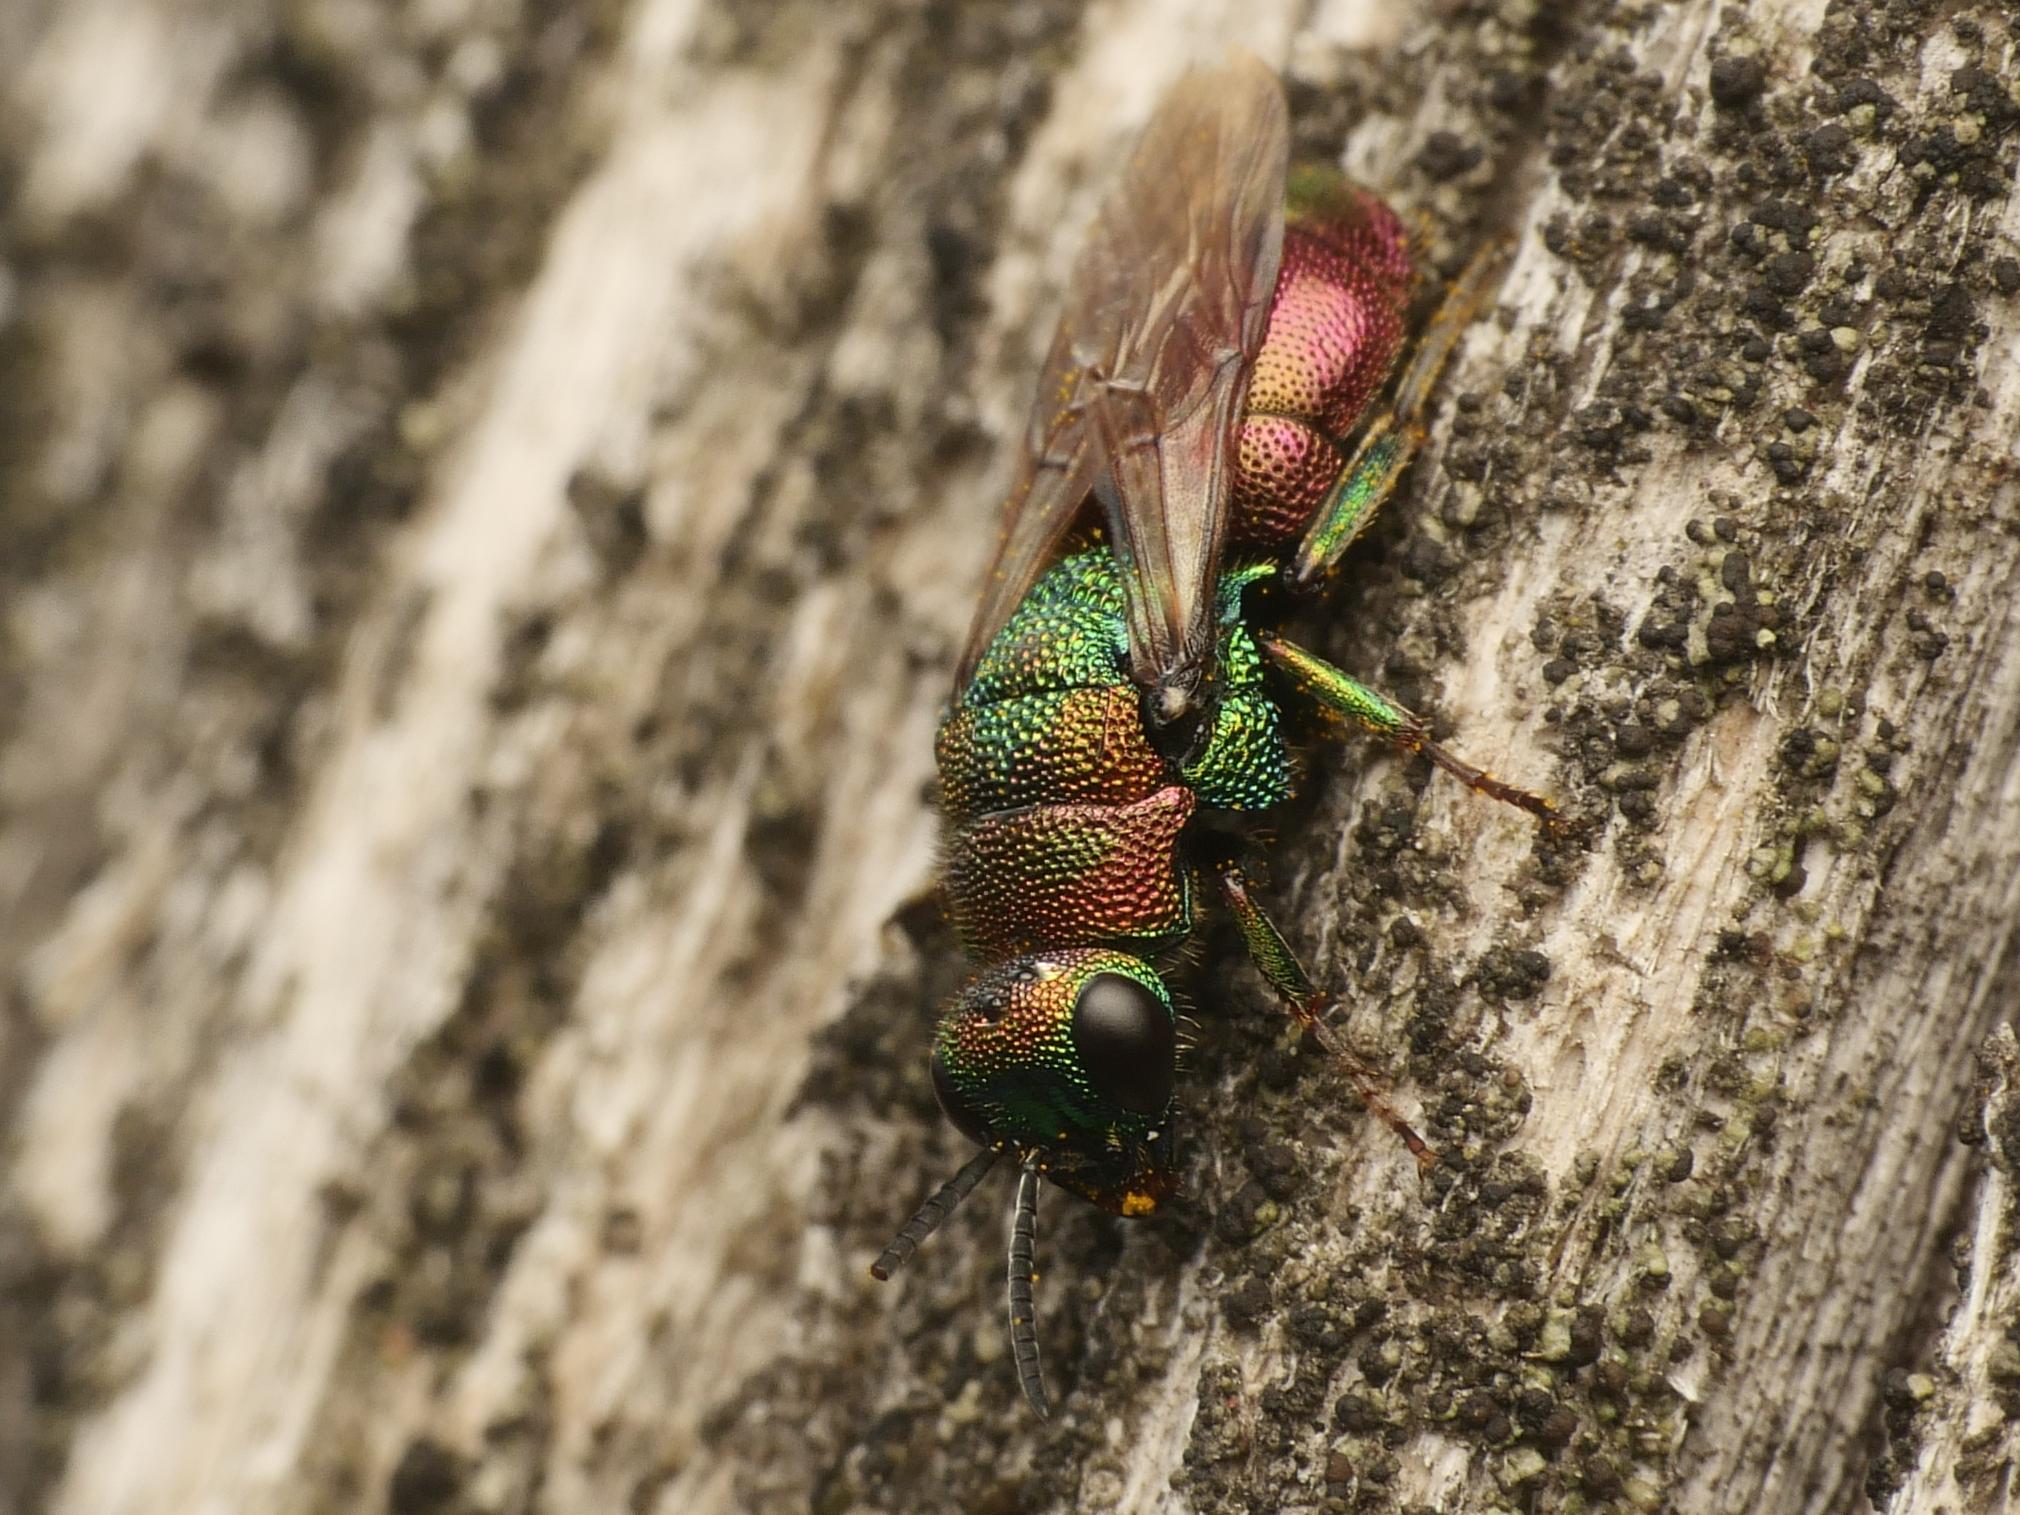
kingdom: Animalia
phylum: Arthropoda
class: Insecta
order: Hymenoptera
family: Chrysididae
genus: Hedychrum
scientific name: Hedychrum rutilans
